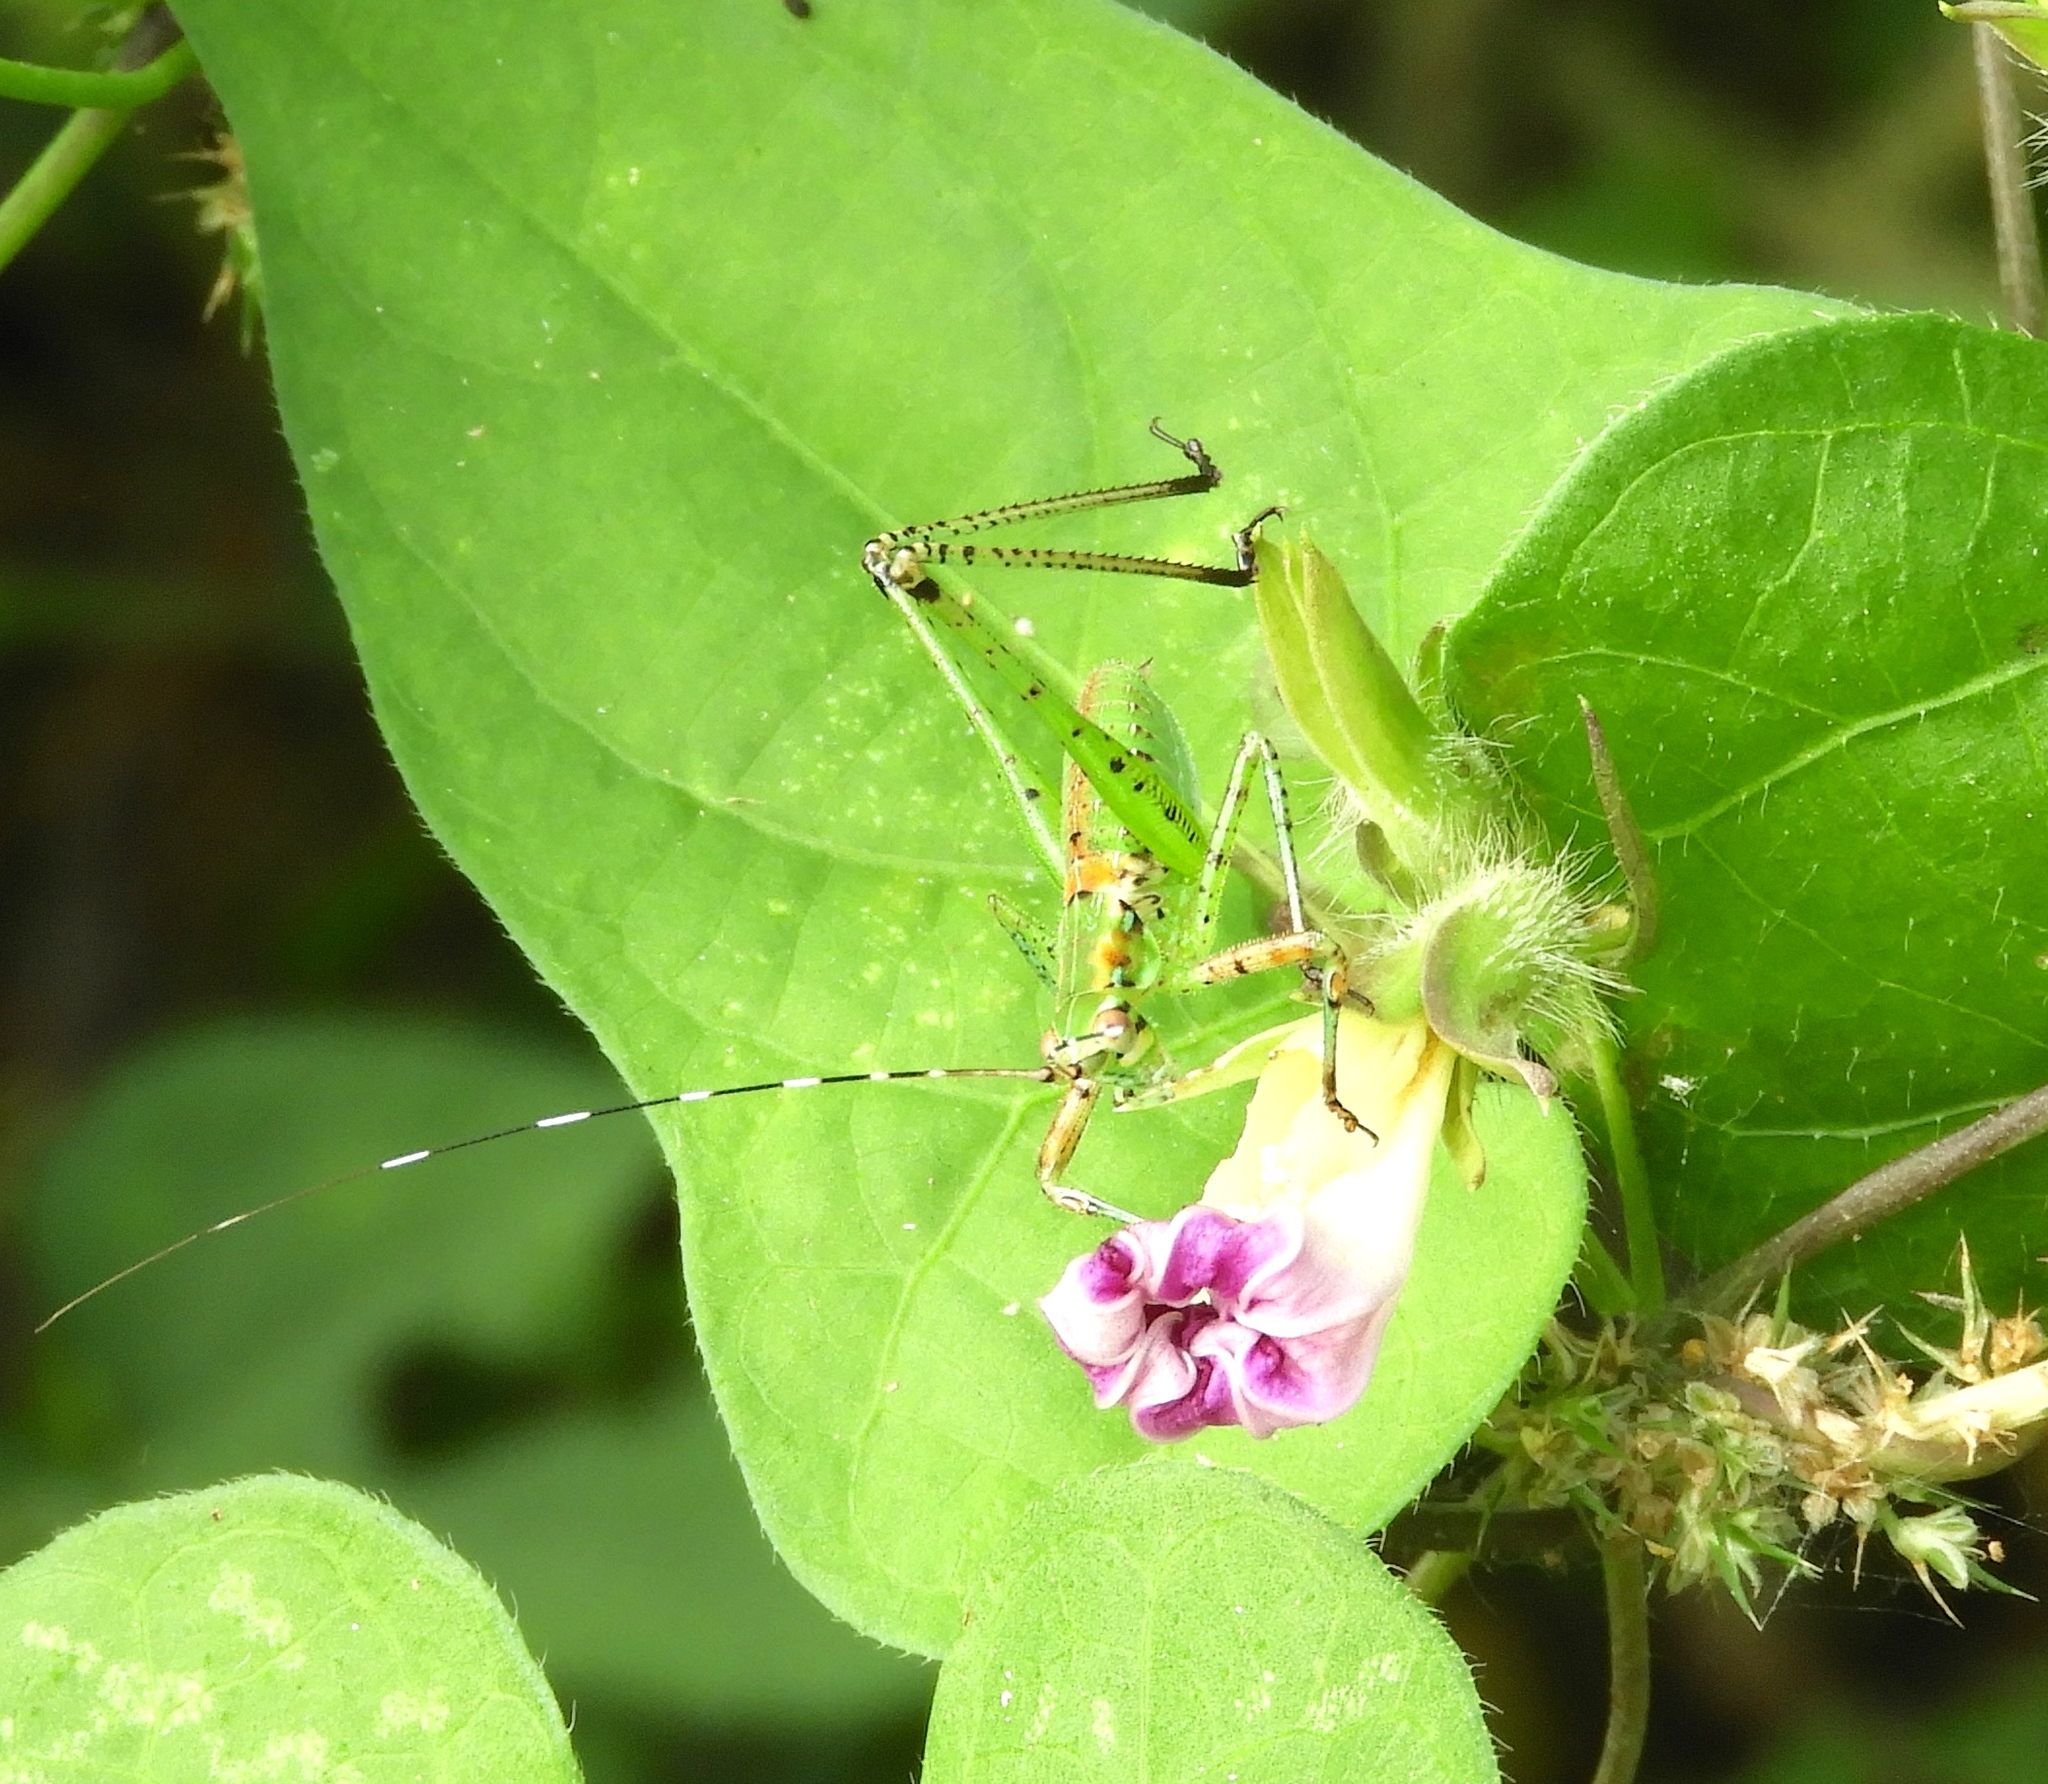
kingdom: Animalia
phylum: Arthropoda
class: Insecta
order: Orthoptera
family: Tettigoniidae
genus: Scudderia
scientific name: Scudderia
